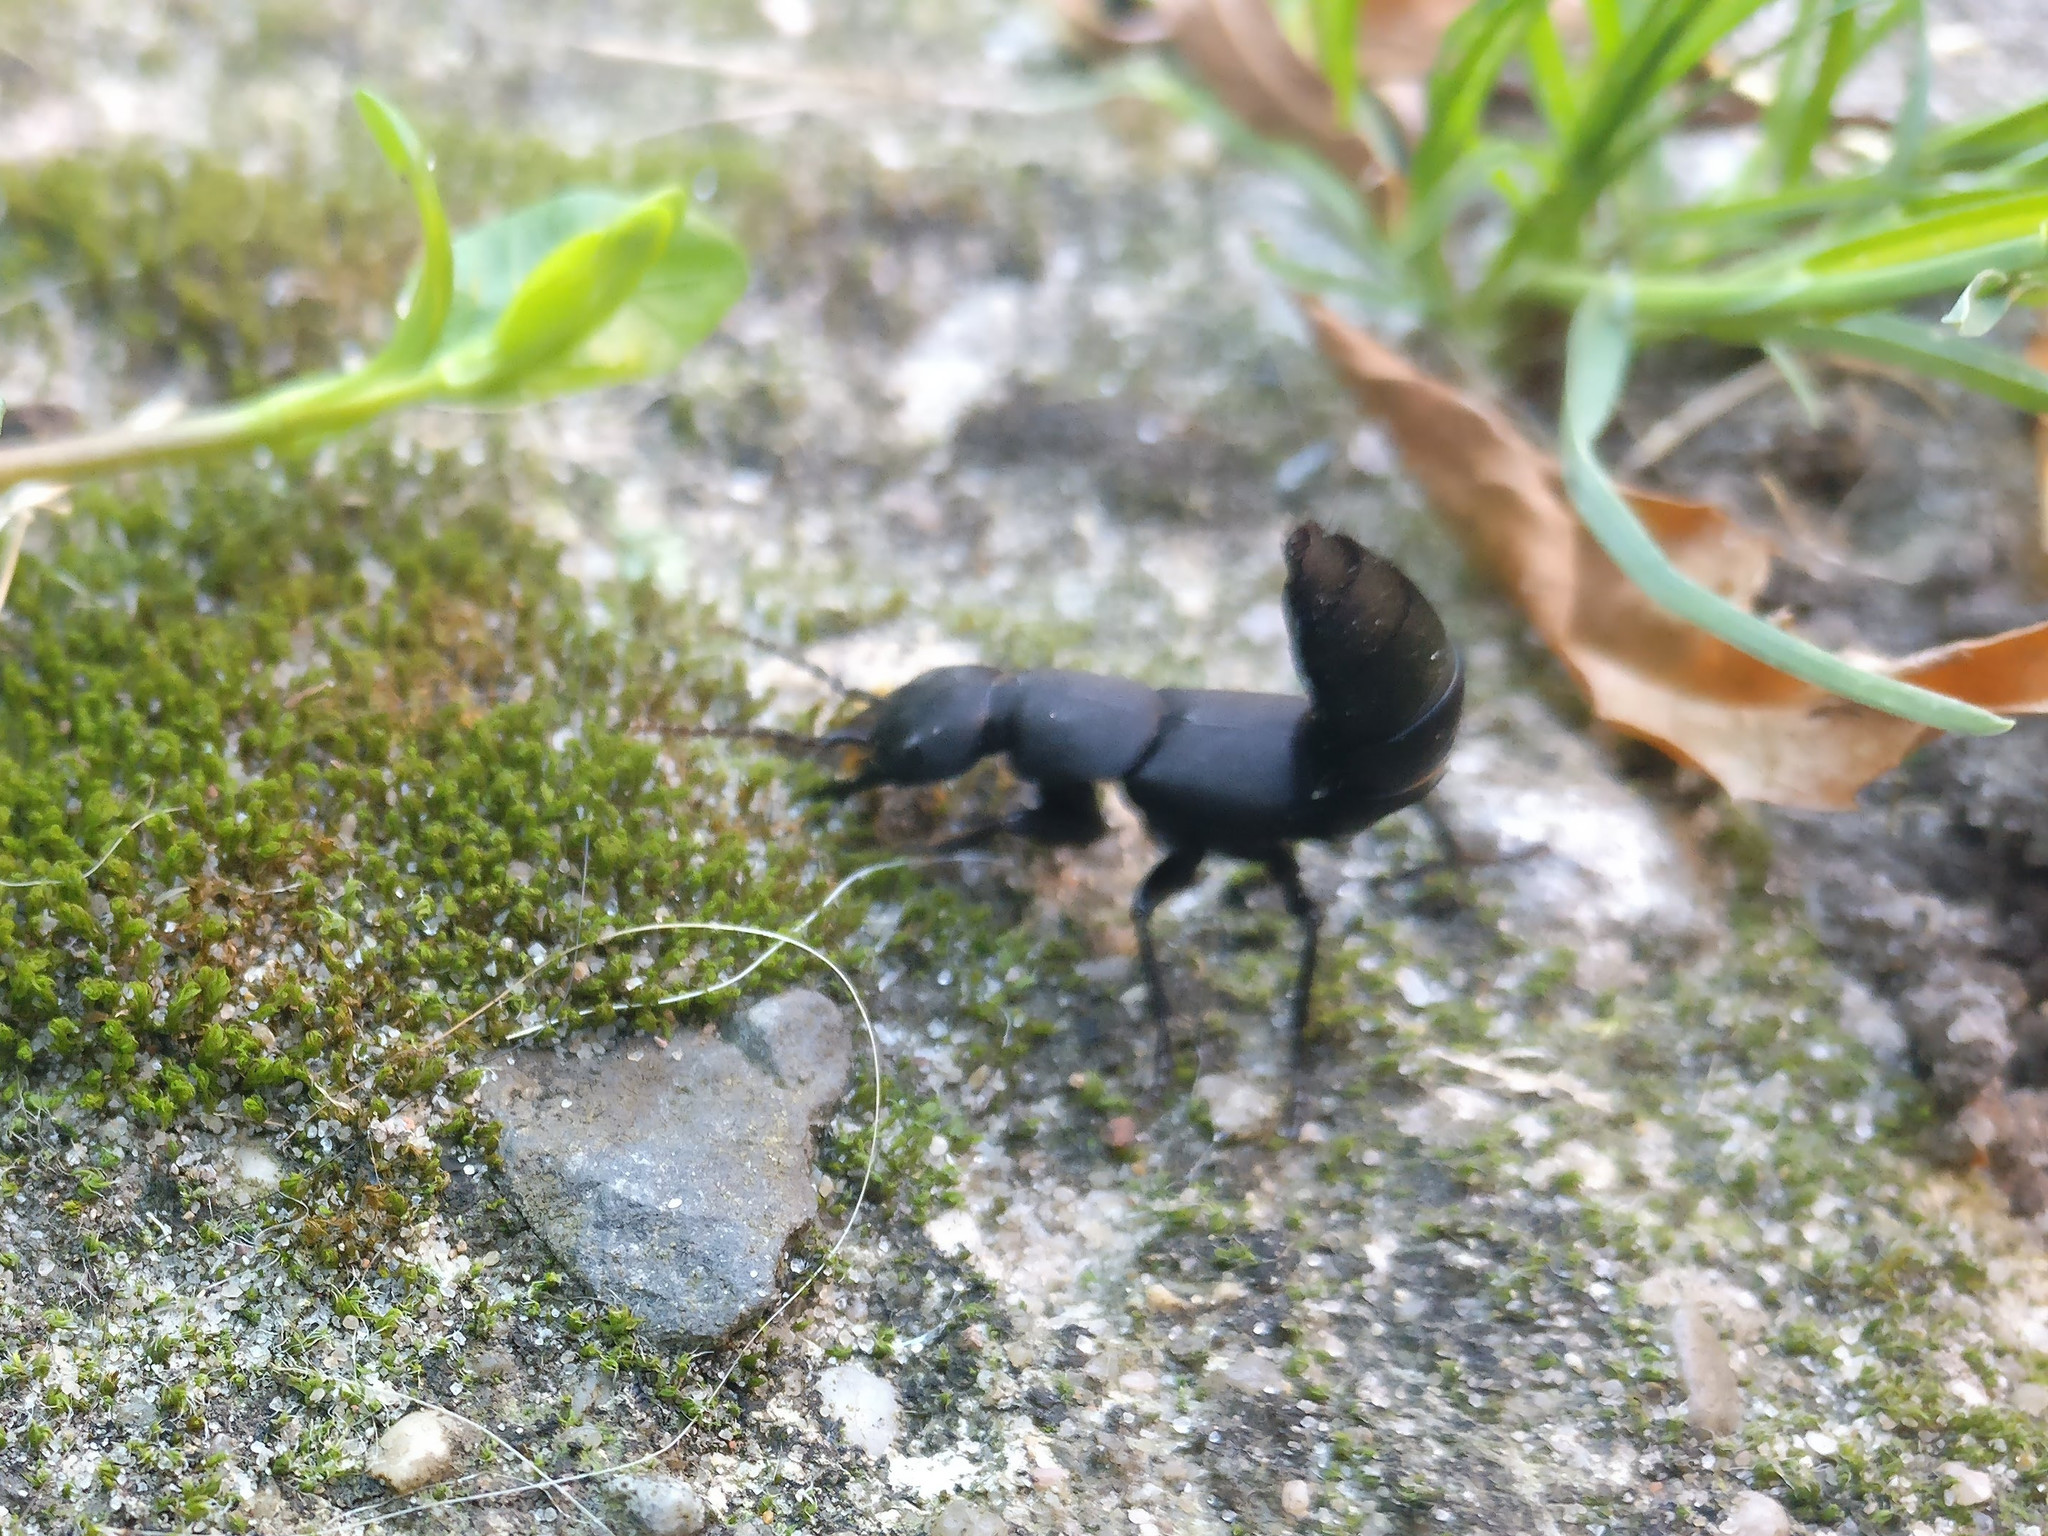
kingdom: Animalia
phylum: Arthropoda
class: Insecta
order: Coleoptera
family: Staphylinidae
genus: Ocypus
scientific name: Ocypus olens
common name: Devil's coach-horse
